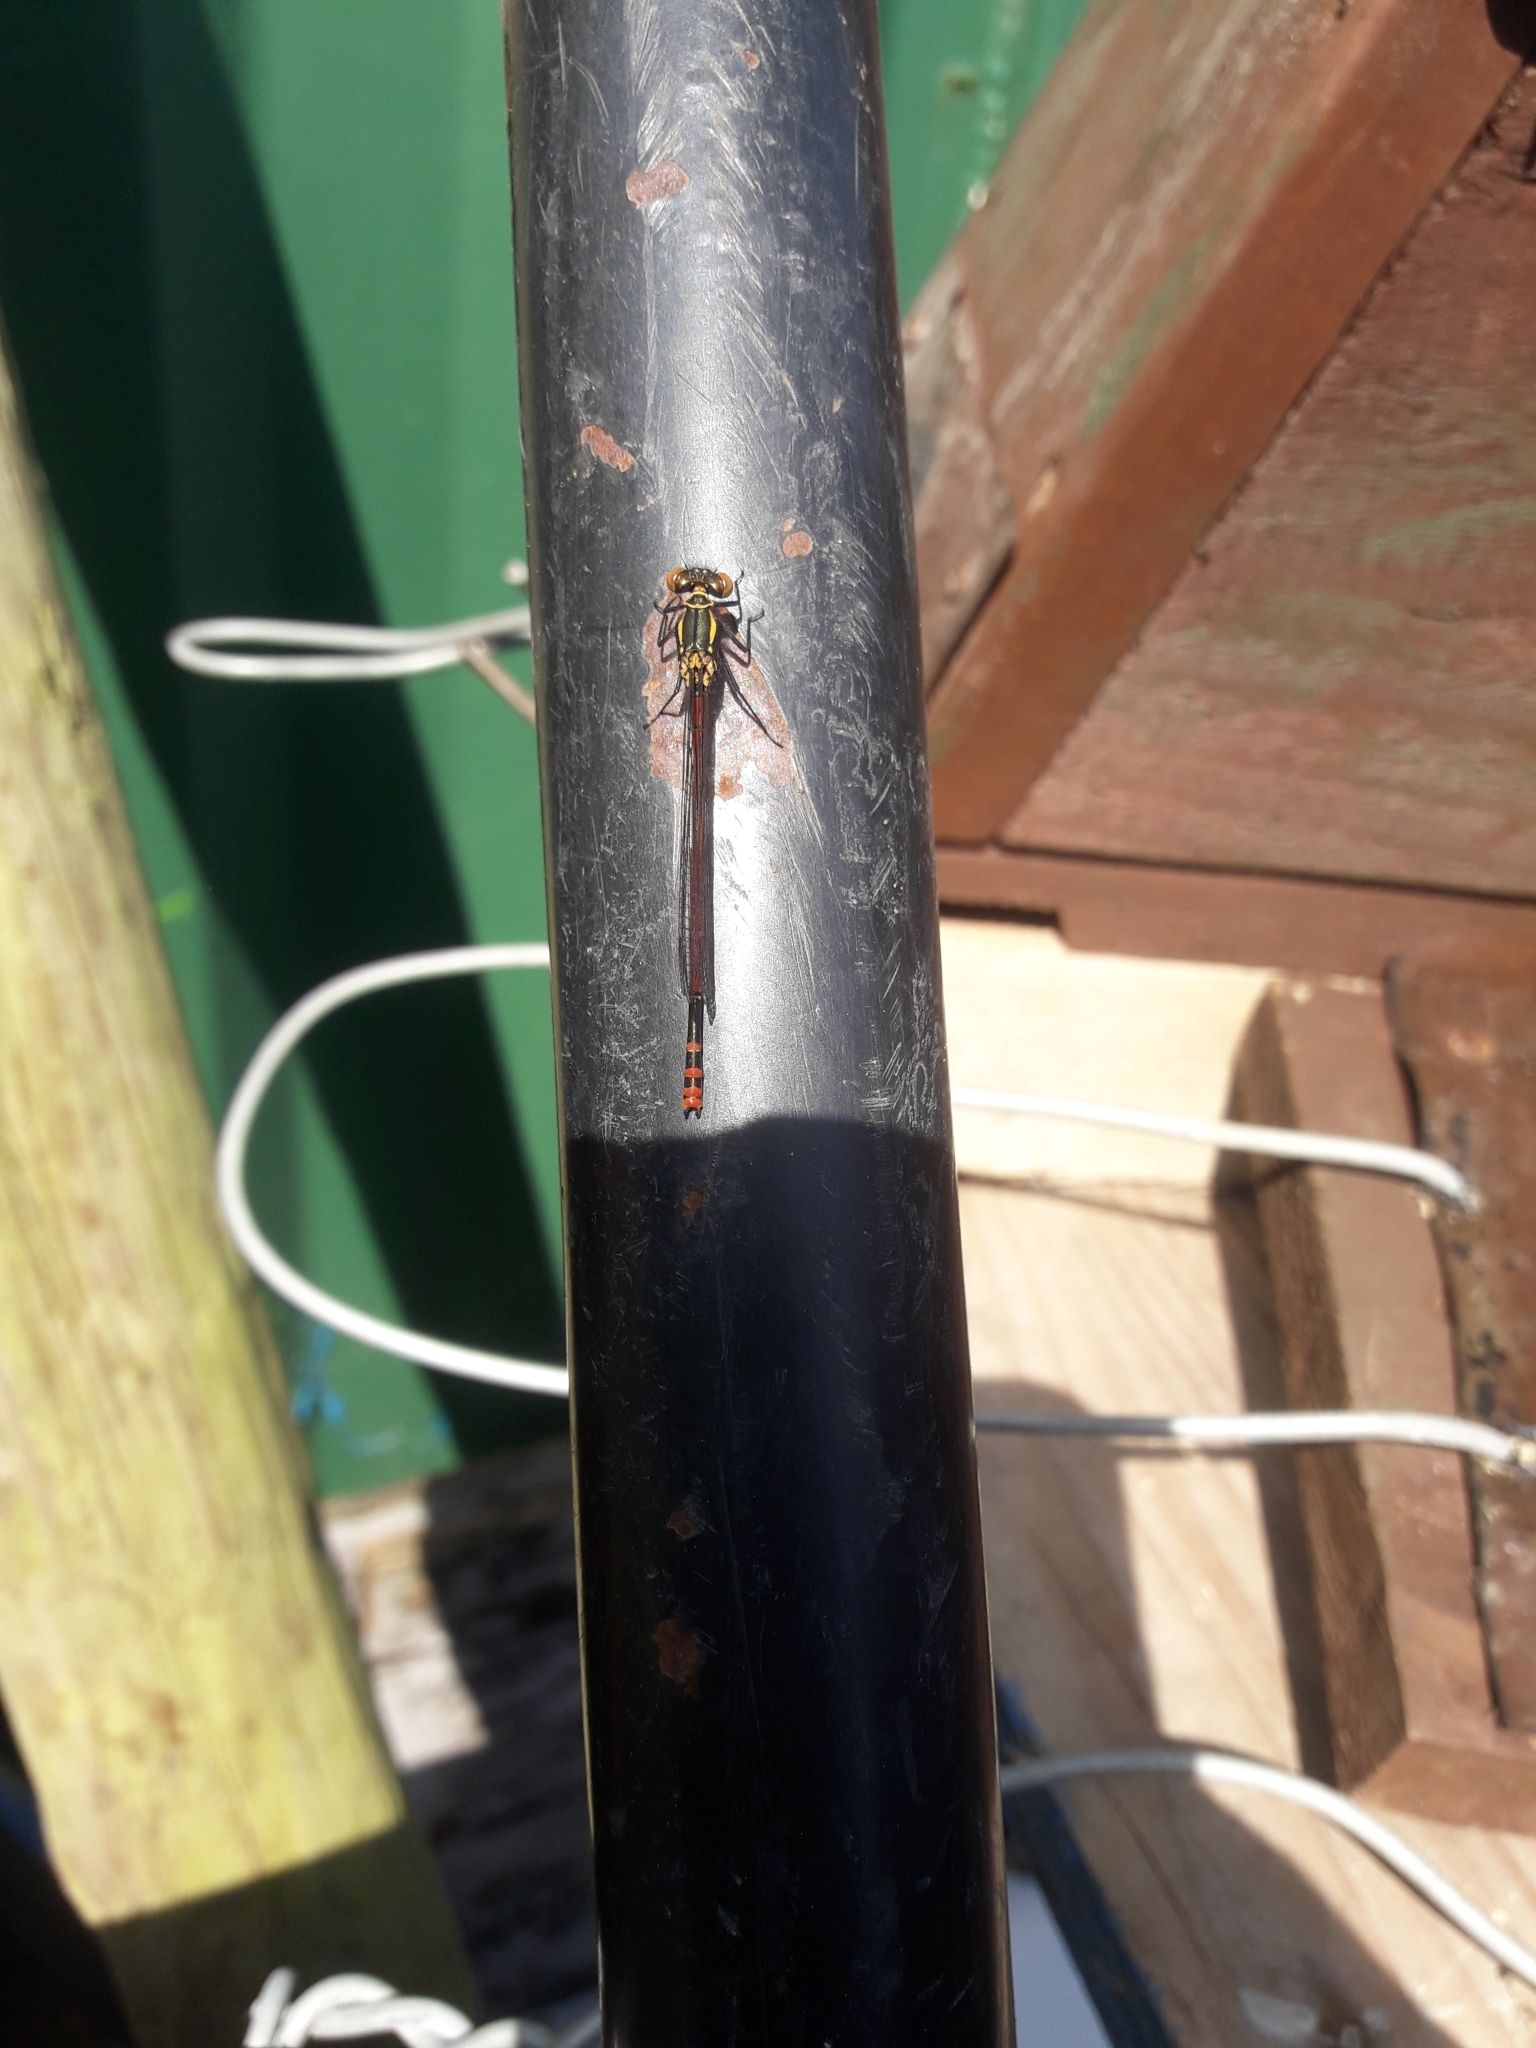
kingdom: Animalia
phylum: Arthropoda
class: Insecta
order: Odonata
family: Coenagrionidae
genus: Pyrrhosoma
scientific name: Pyrrhosoma nymphula
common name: Large red damsel
